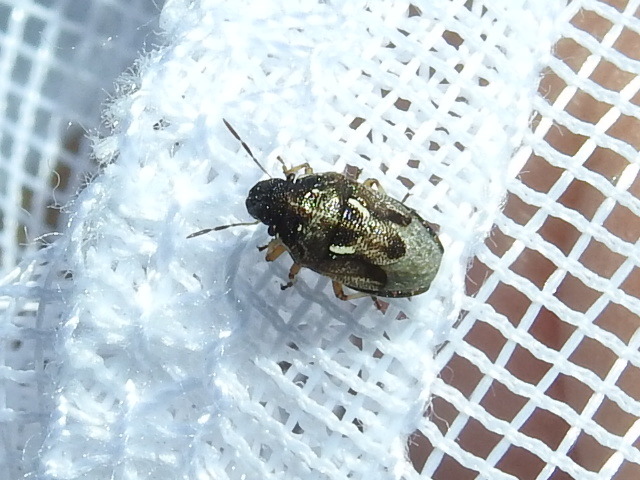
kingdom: Animalia
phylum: Arthropoda
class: Insecta
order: Hemiptera
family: Pentatomidae
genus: Neottiglossa
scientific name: Neottiglossa tumidifrons
